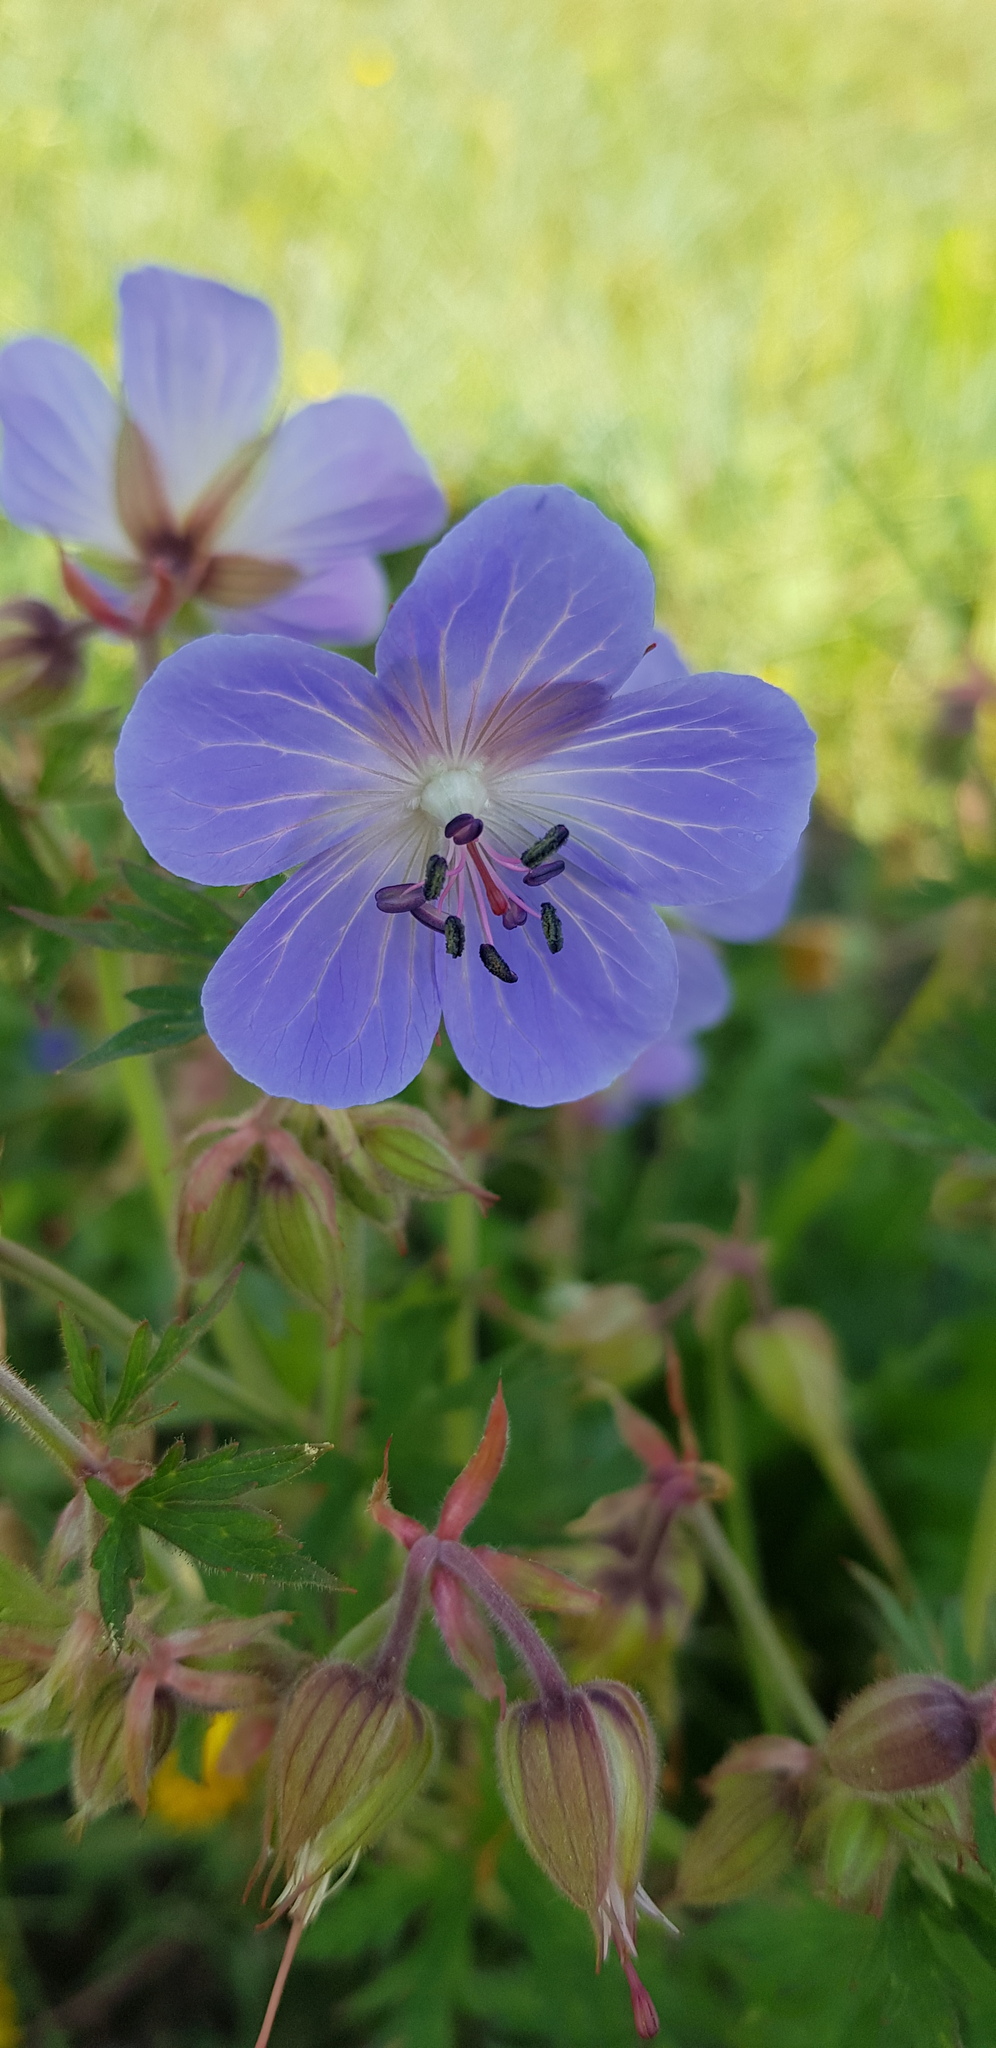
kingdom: Plantae
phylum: Tracheophyta
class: Magnoliopsida
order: Geraniales
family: Geraniaceae
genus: Geranium
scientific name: Geranium pratense
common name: Meadow crane's-bill
